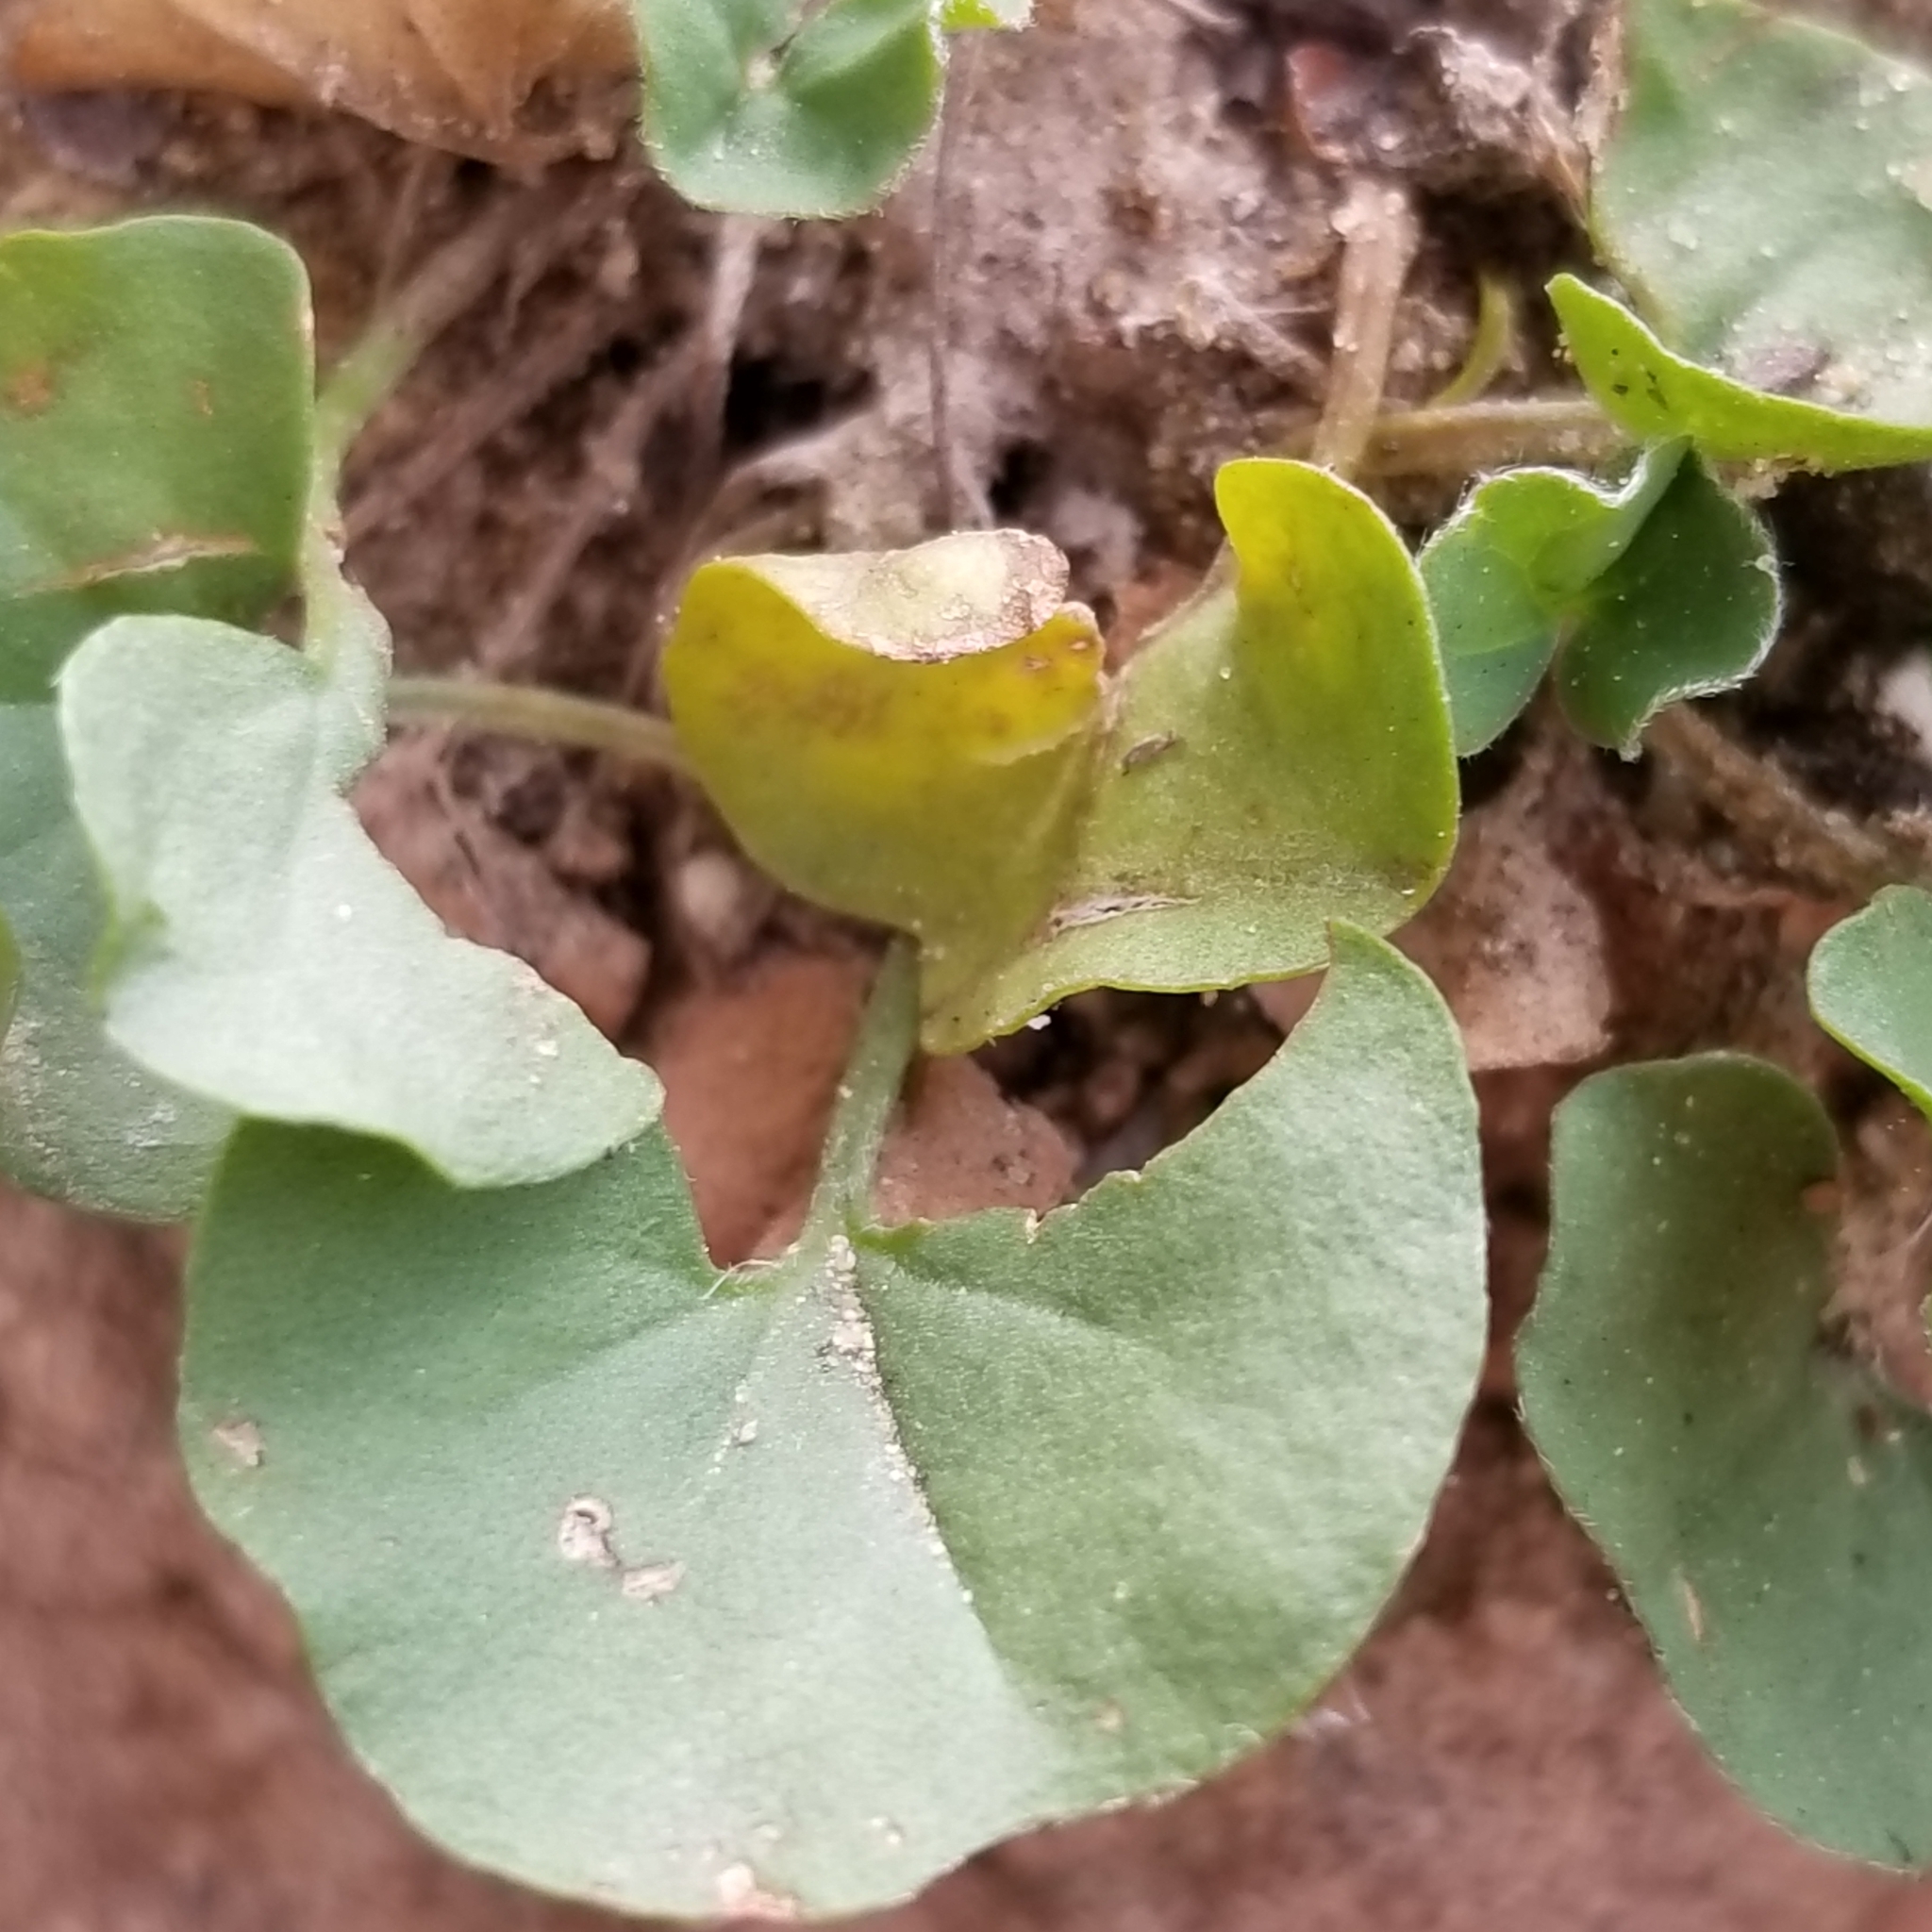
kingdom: Plantae
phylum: Tracheophyta
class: Magnoliopsida
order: Solanales
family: Convolvulaceae
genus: Dichondra
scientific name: Dichondra occidentalis
